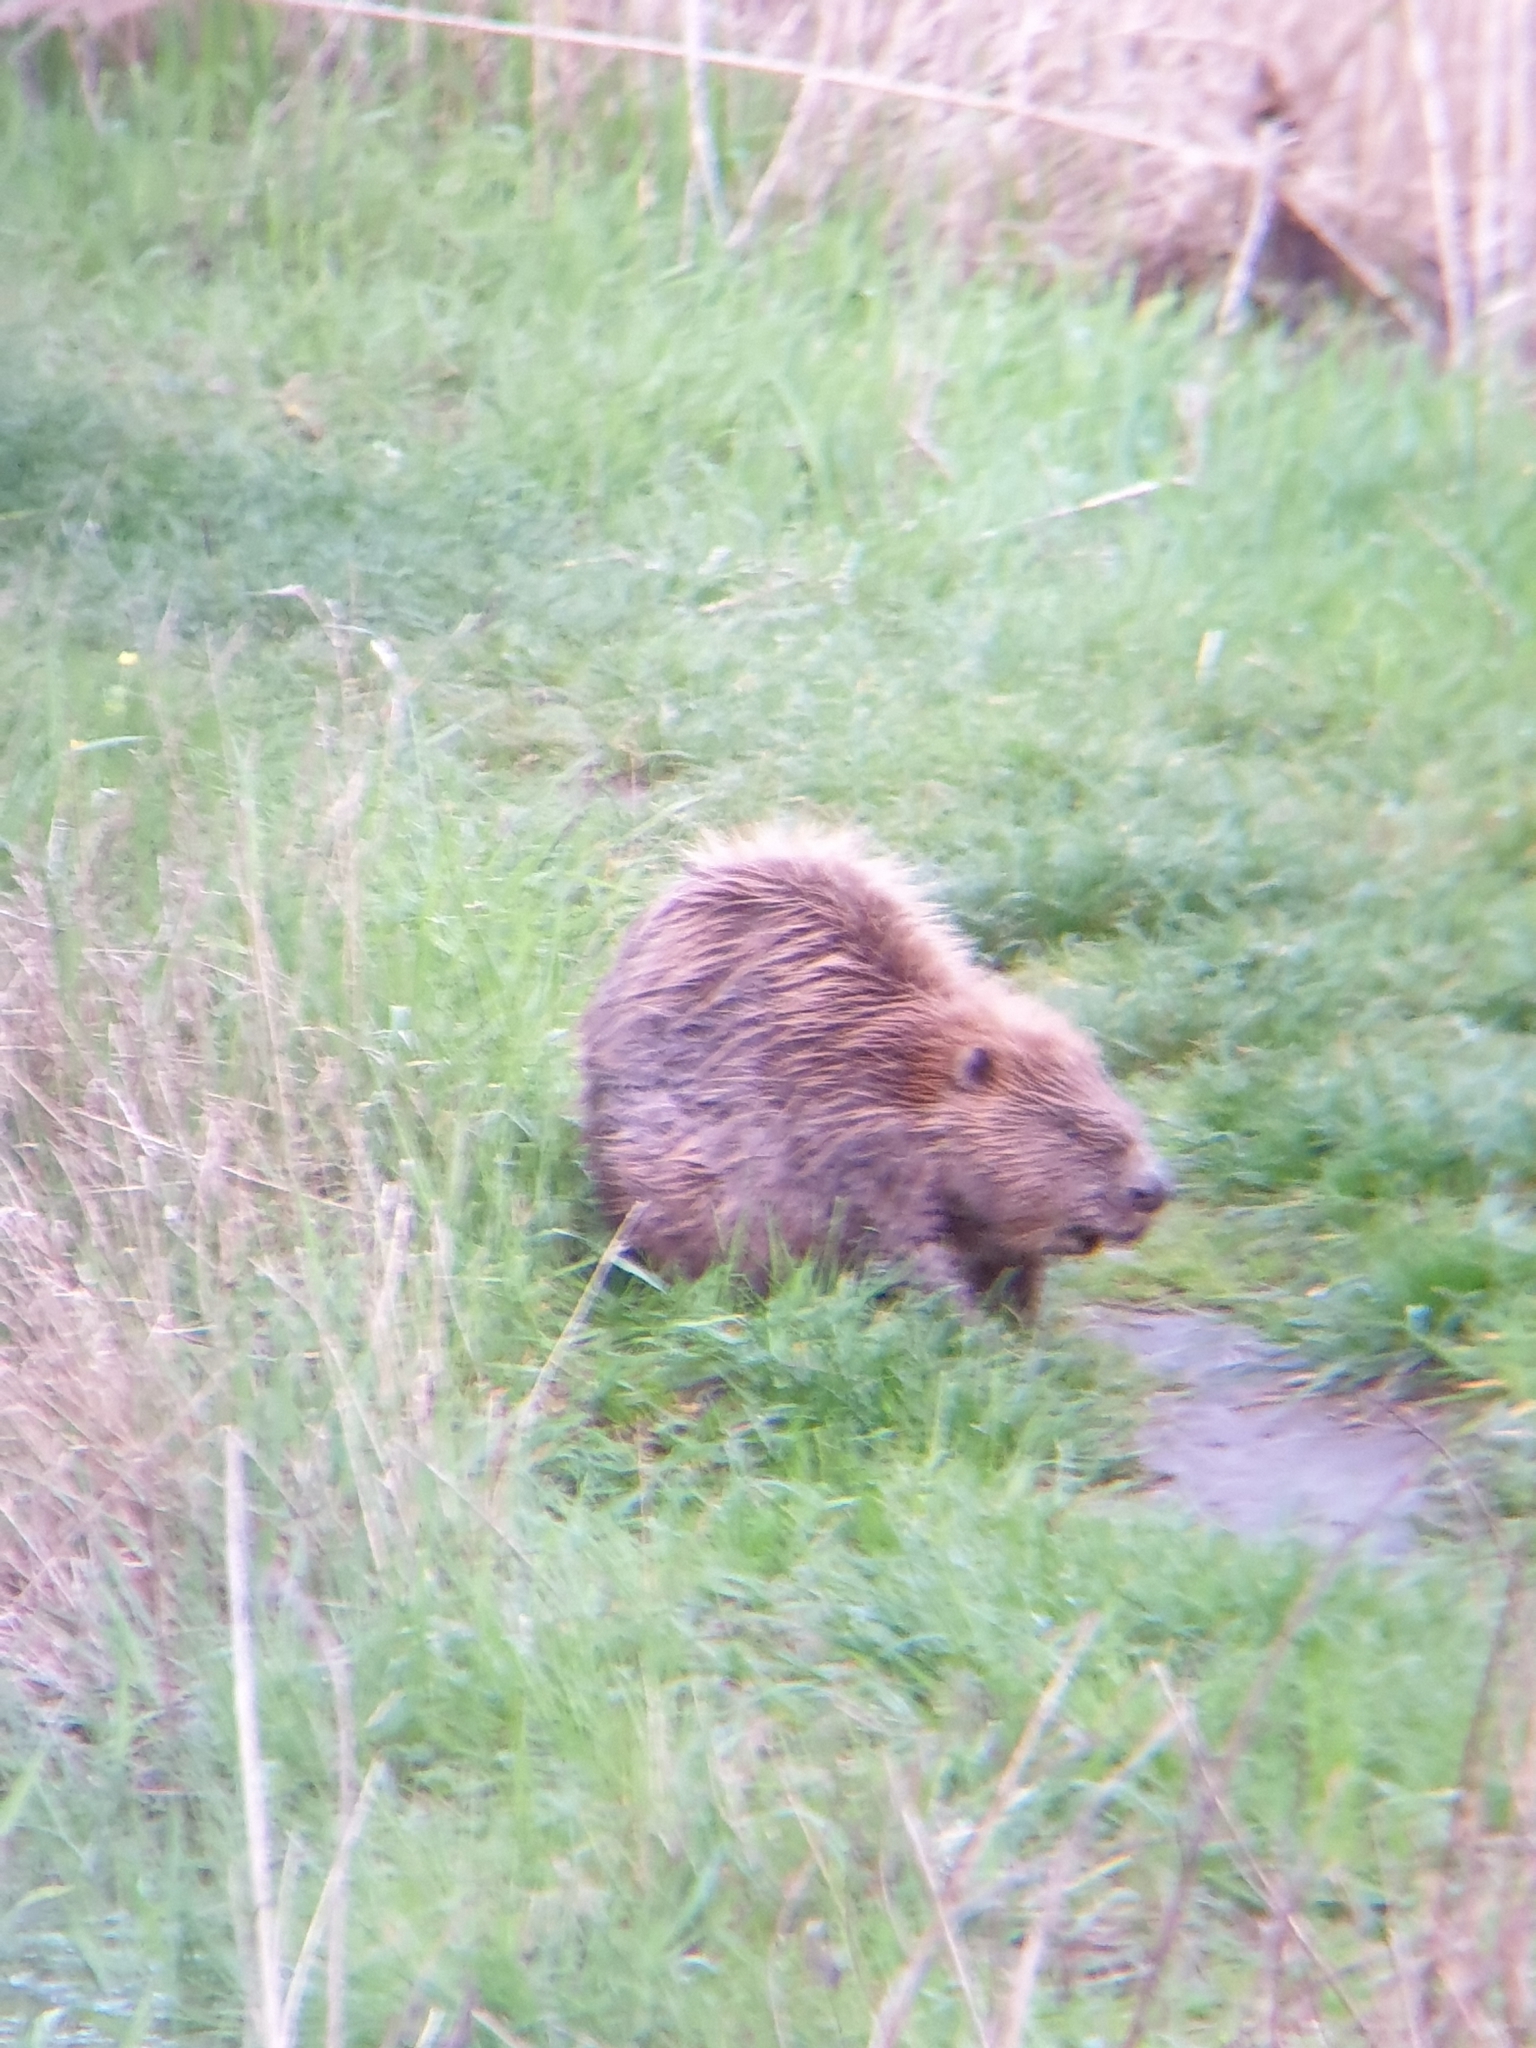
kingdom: Animalia
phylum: Chordata
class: Mammalia
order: Rodentia
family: Castoridae
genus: Castor
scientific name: Castor fiber
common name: Eurasian beaver
